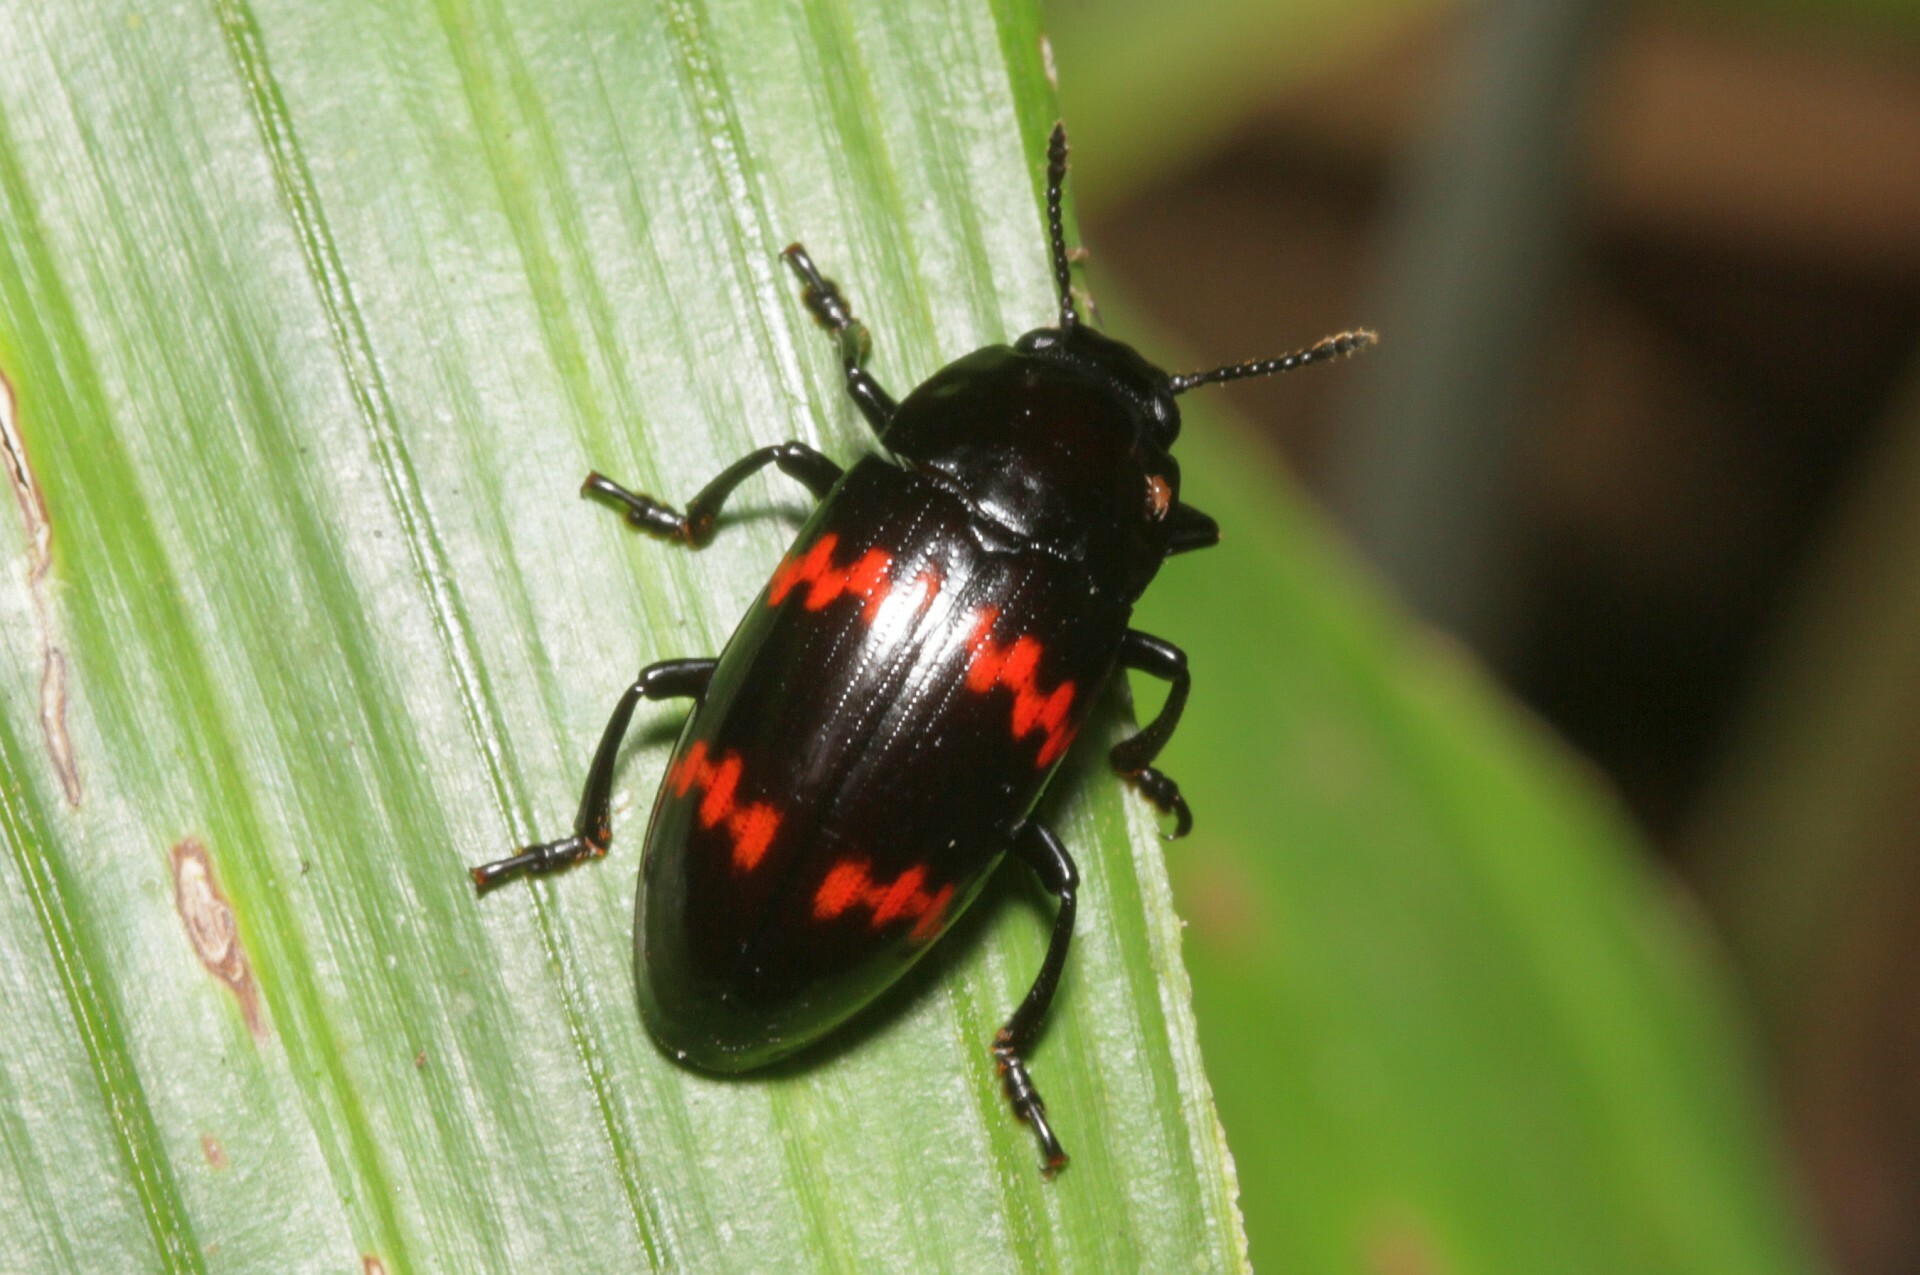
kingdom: Animalia
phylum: Arthropoda
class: Insecta
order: Coleoptera
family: Erotylidae
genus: Pselaphacus
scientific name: Pselaphacus rubricatus
